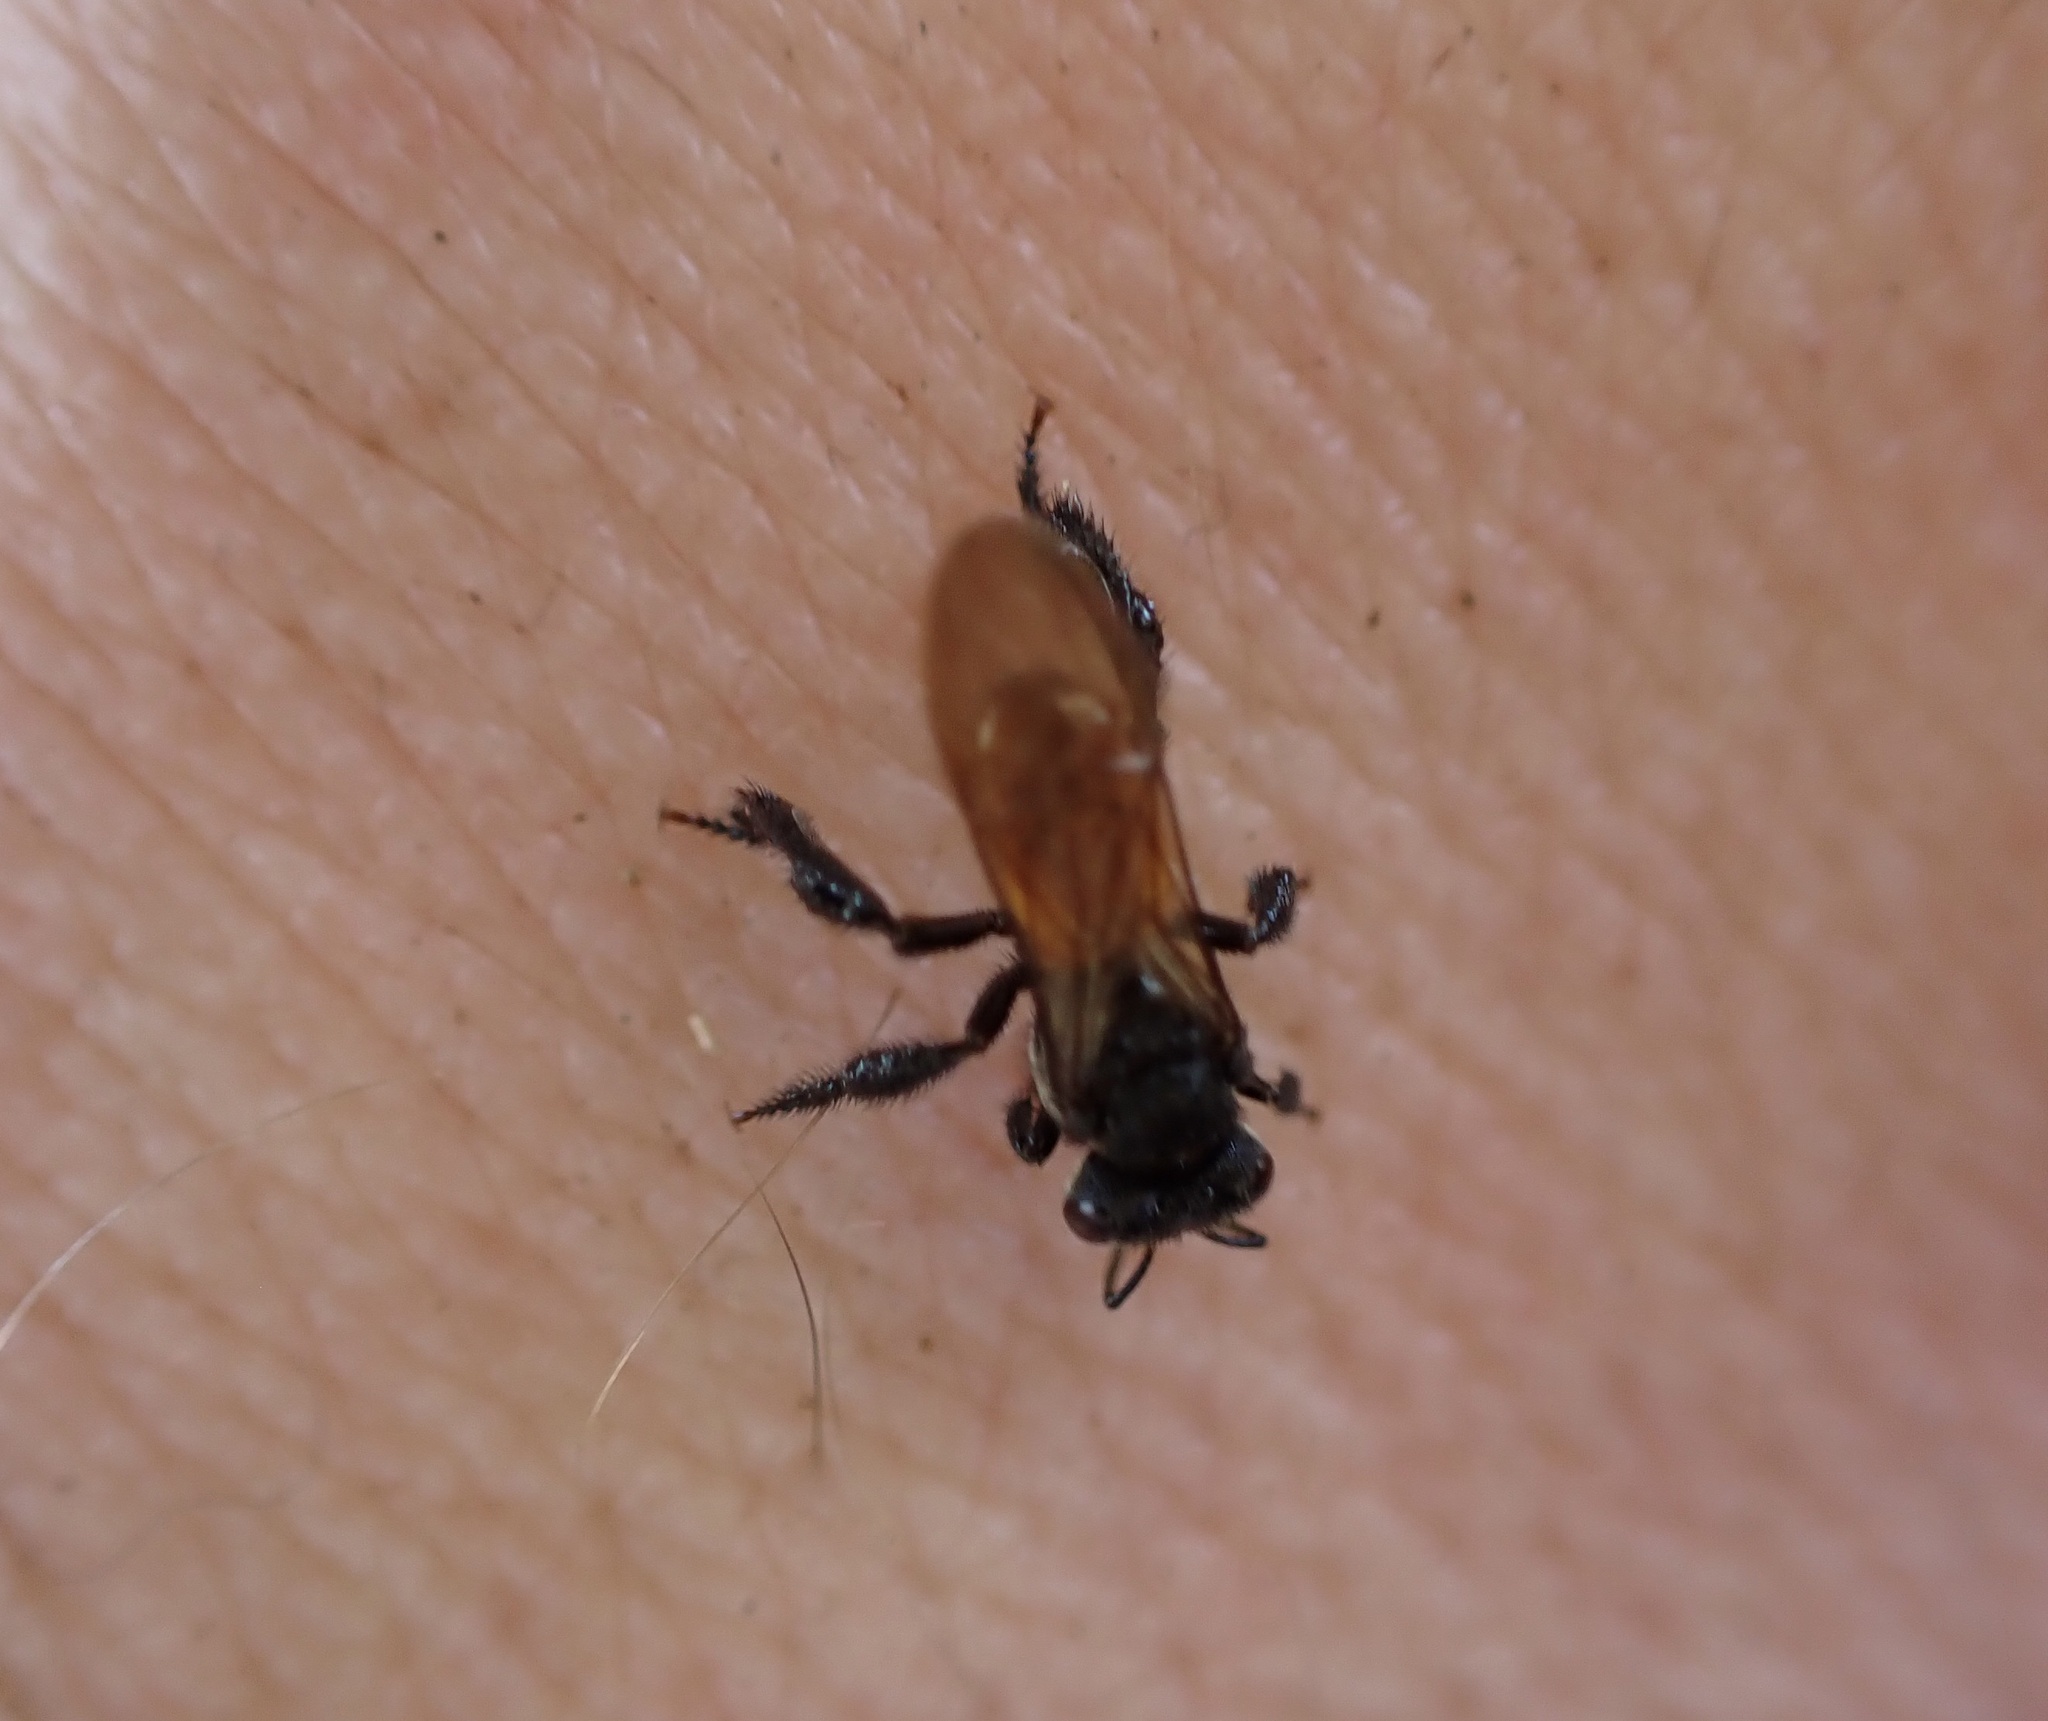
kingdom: Animalia
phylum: Arthropoda
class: Insecta
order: Hymenoptera
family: Apidae
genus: Trigona
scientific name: Trigona fulviventris
